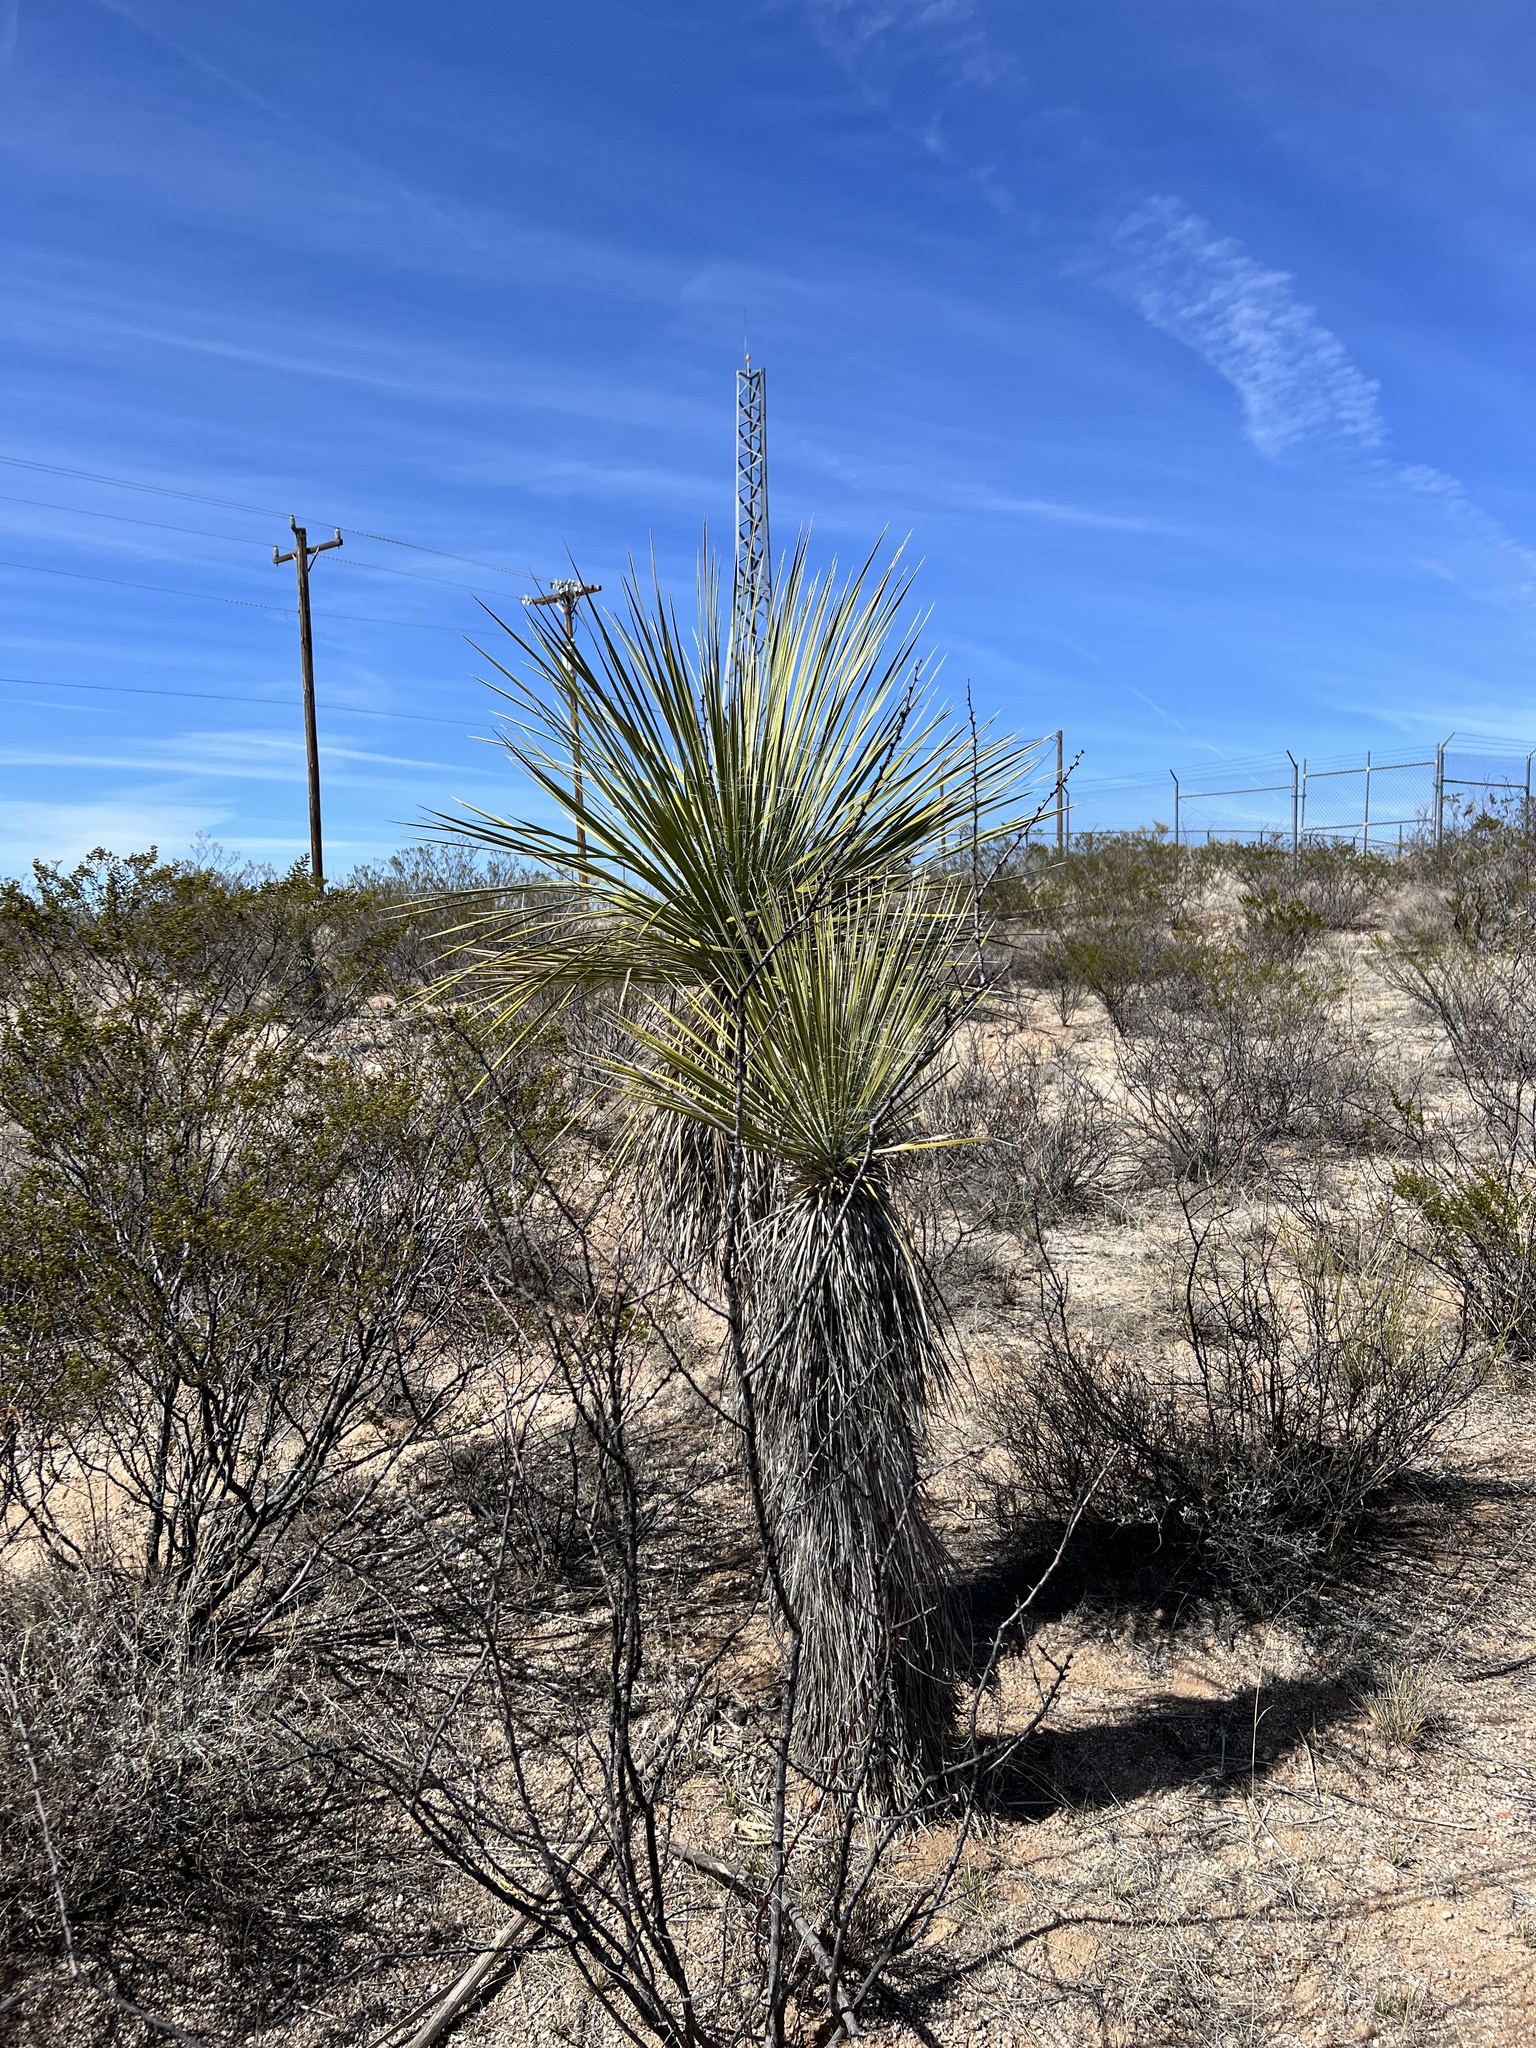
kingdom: Plantae
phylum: Tracheophyta
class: Liliopsida
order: Asparagales
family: Asparagaceae
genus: Yucca
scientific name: Yucca elata
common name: Palmella
